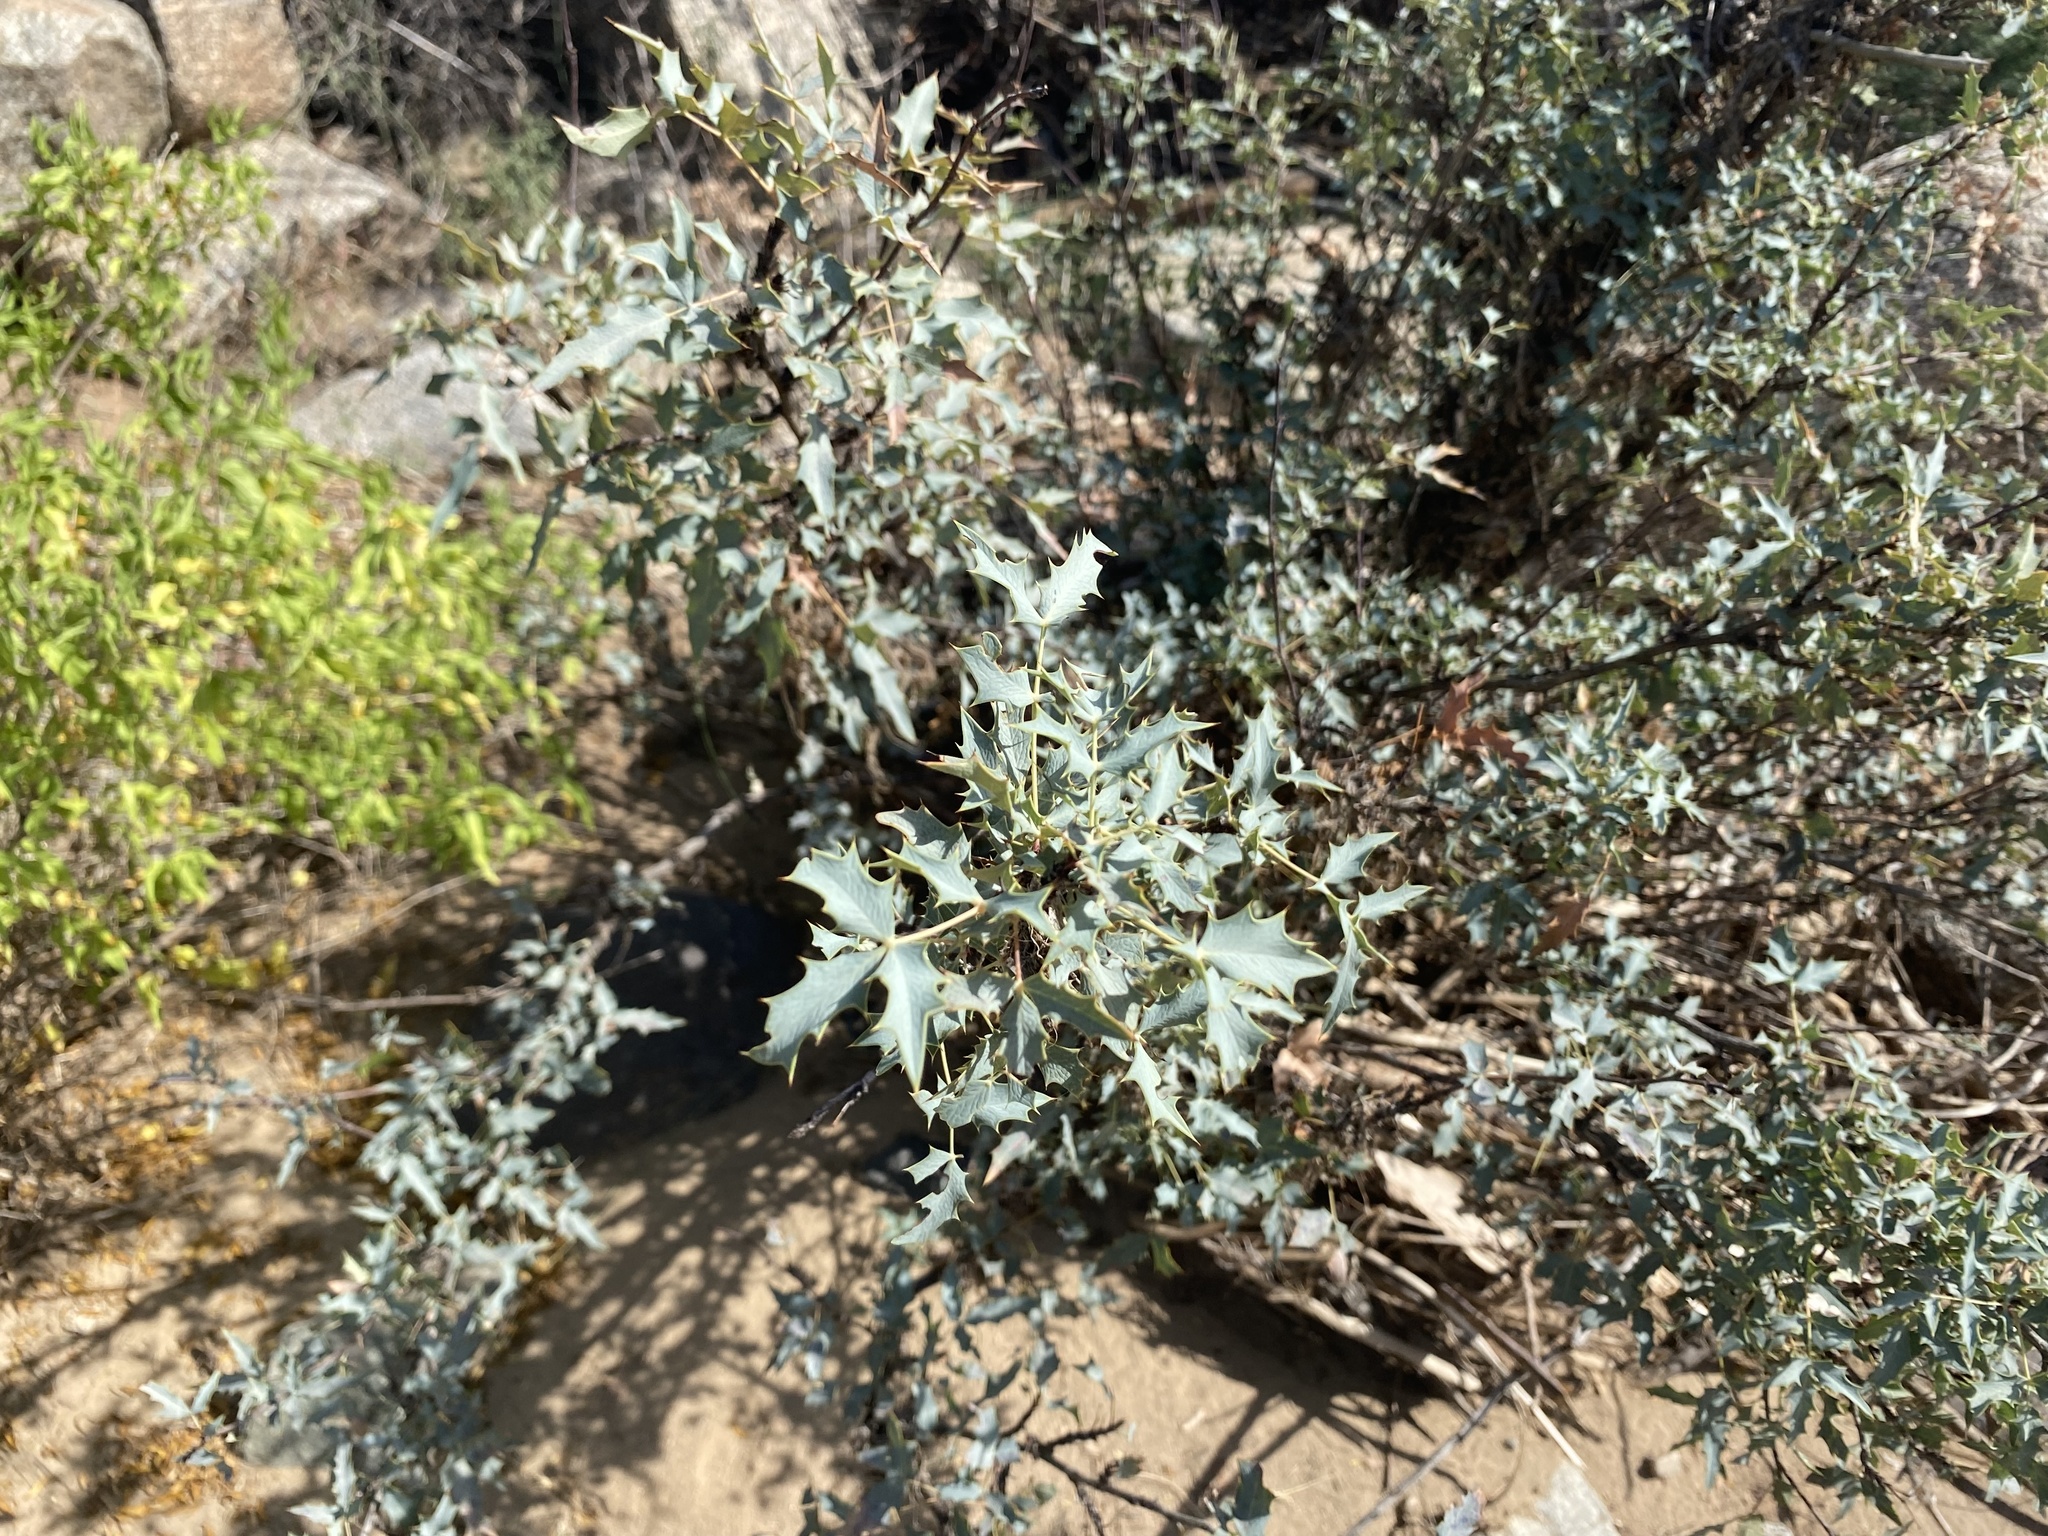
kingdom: Plantae
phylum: Tracheophyta
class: Magnoliopsida
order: Ranunculales
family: Berberidaceae
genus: Alloberberis
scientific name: Alloberberis haematocarpa
